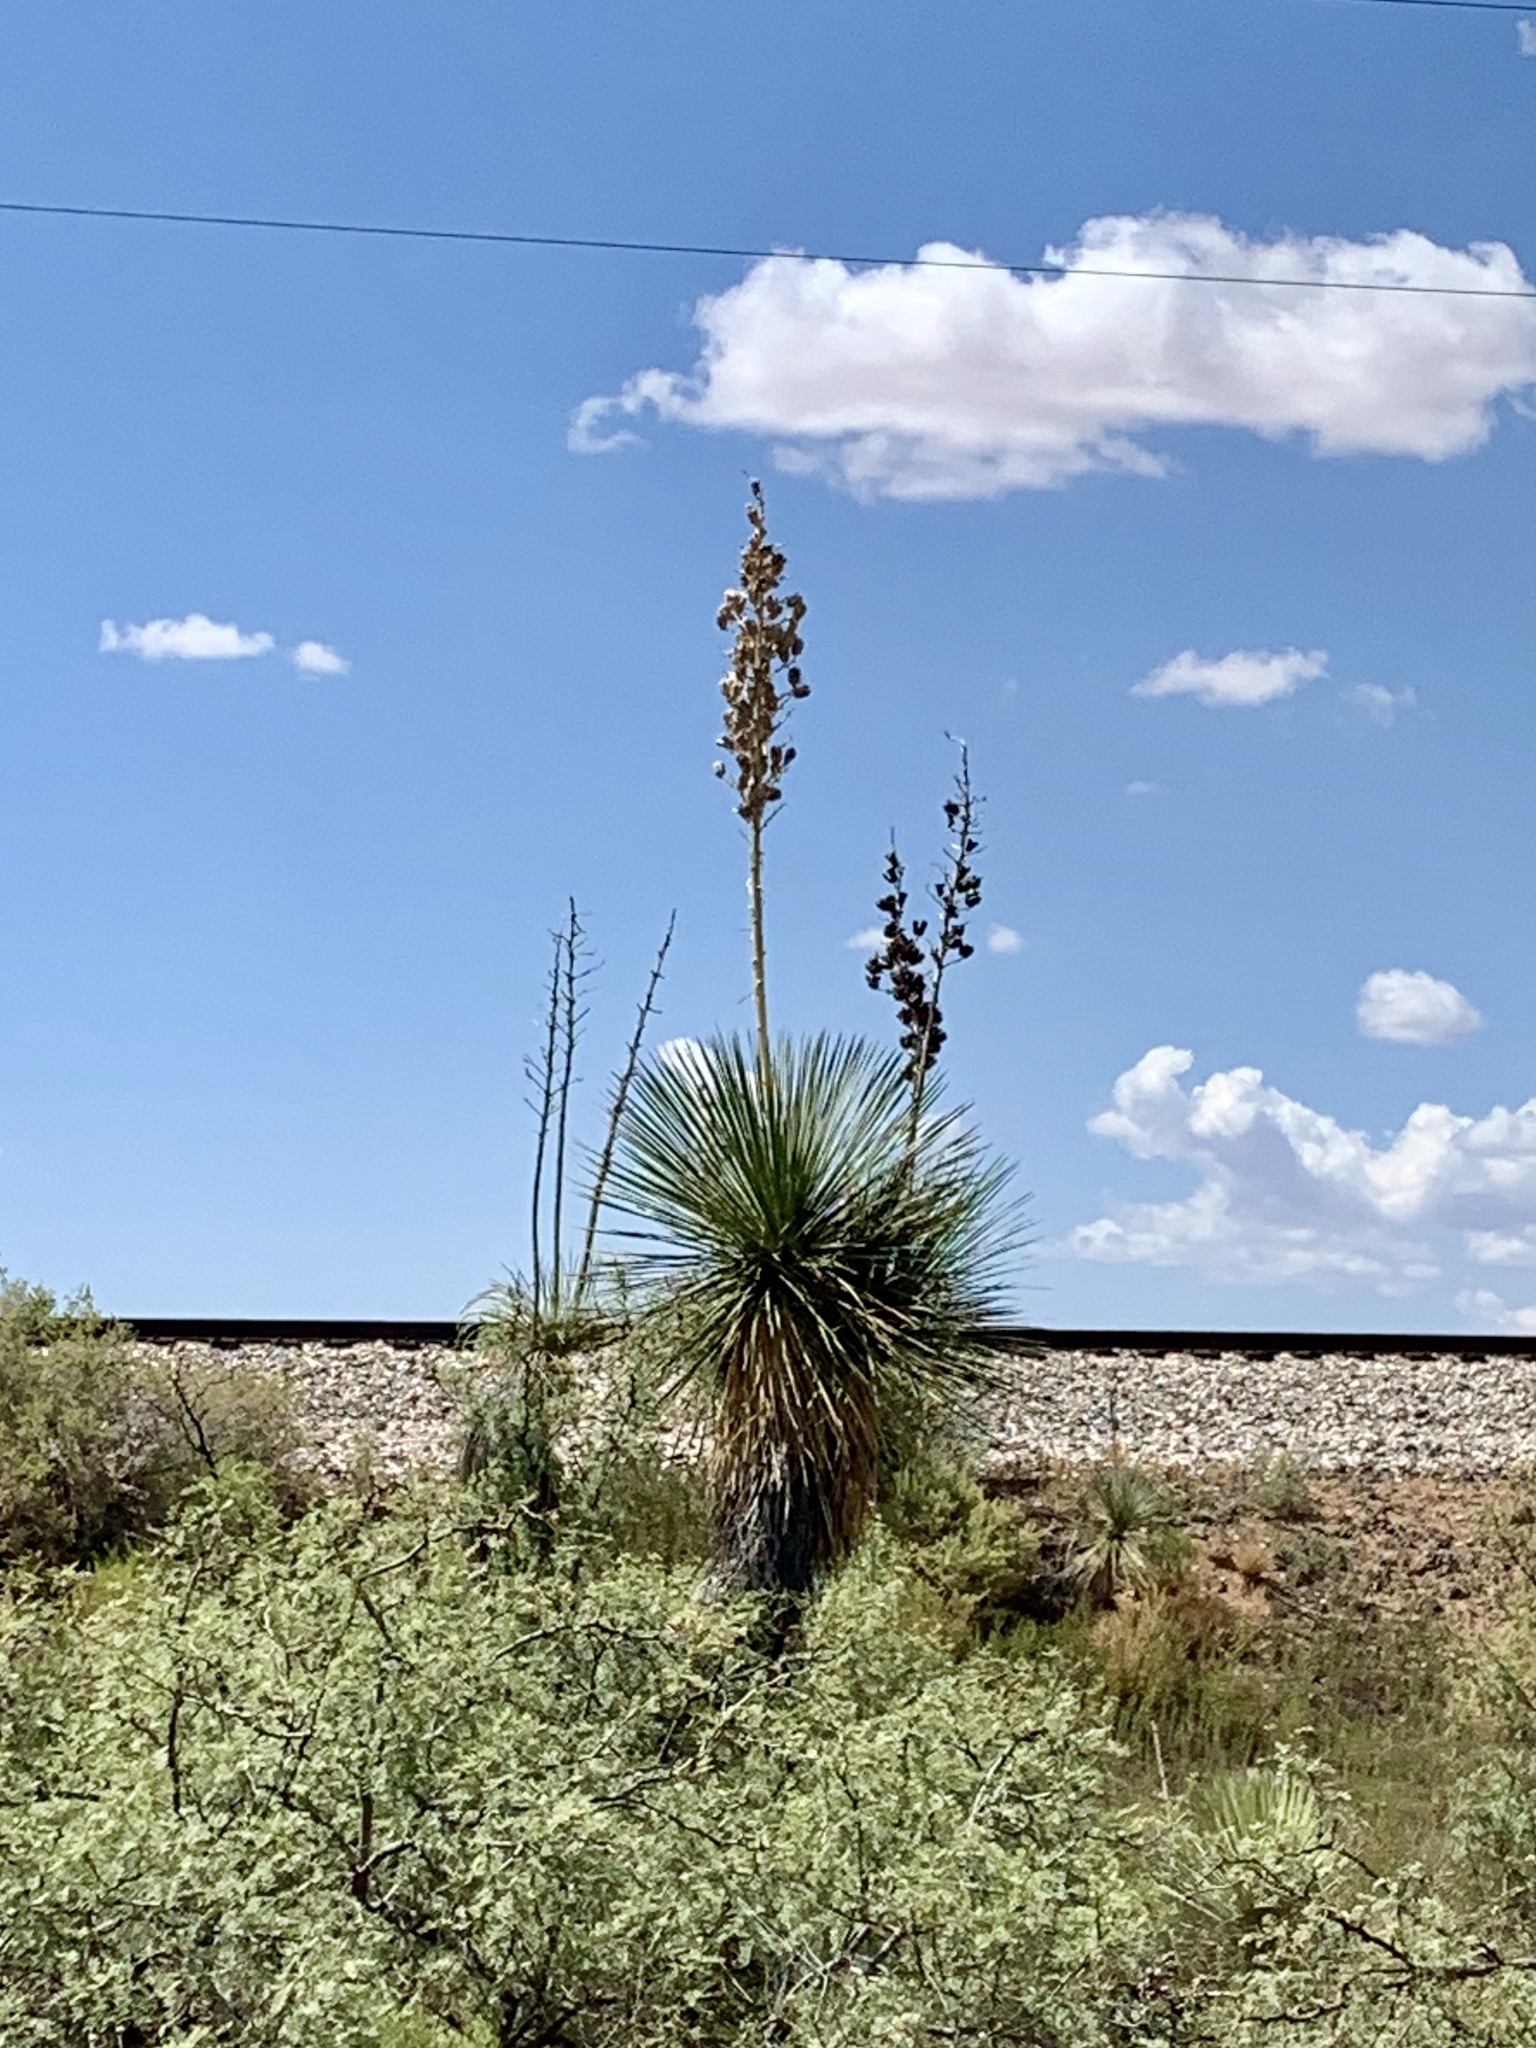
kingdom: Plantae
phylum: Tracheophyta
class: Liliopsida
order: Asparagales
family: Asparagaceae
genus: Yucca
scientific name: Yucca elata
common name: Palmella
